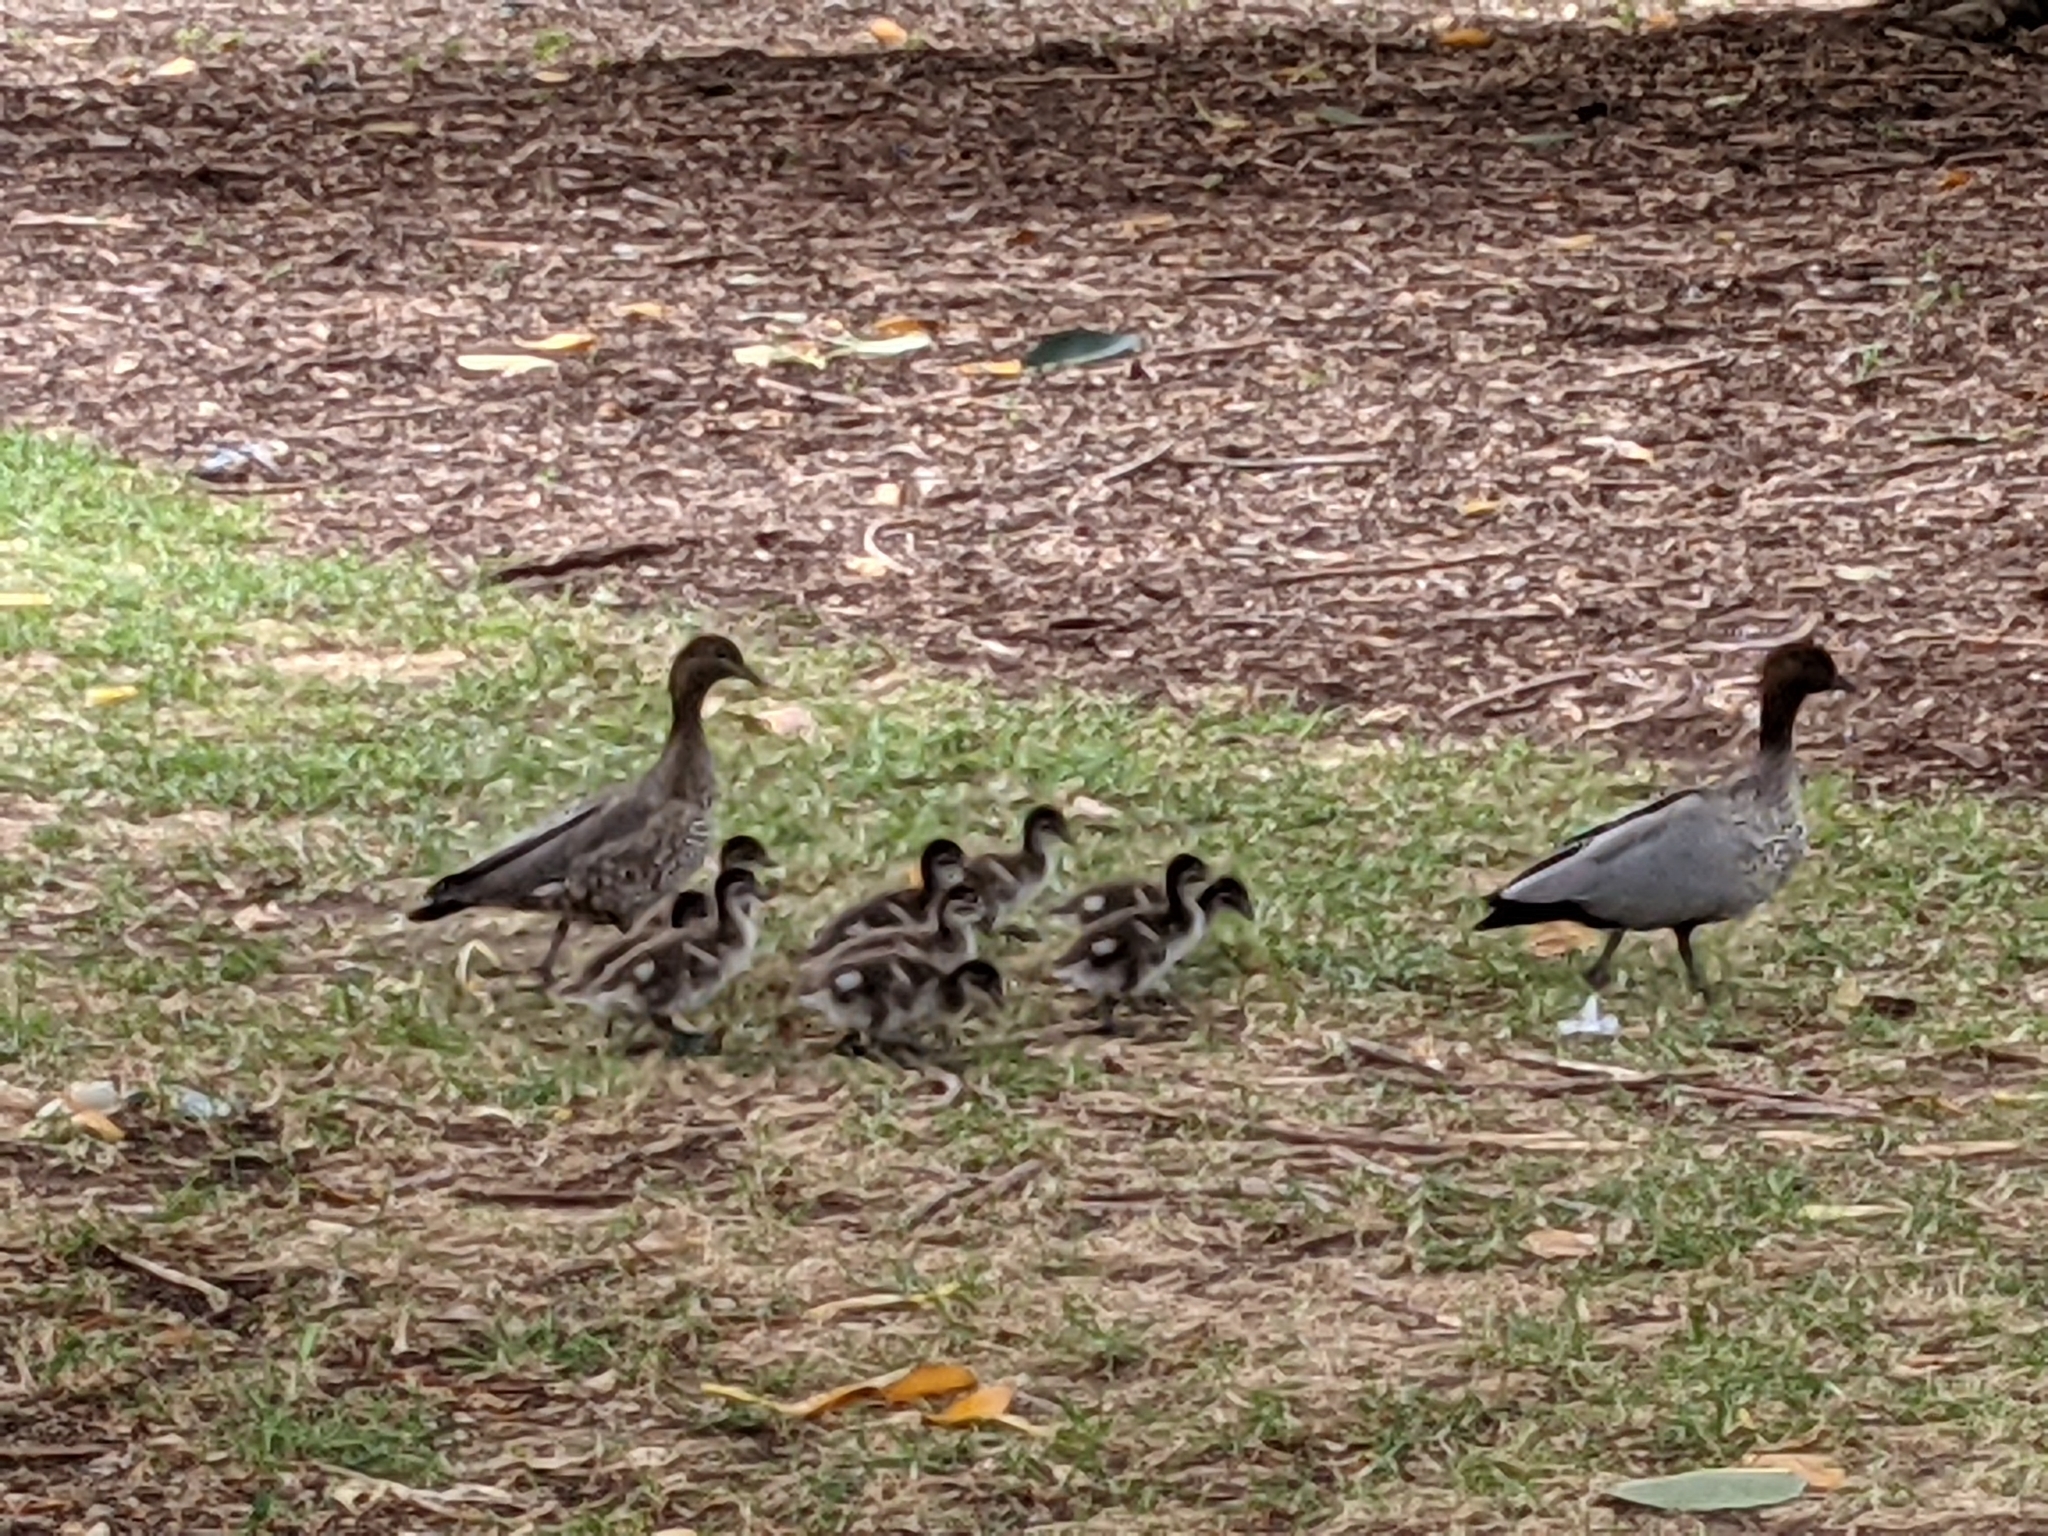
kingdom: Animalia
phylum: Chordata
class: Aves
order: Anseriformes
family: Anatidae
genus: Chenonetta
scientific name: Chenonetta jubata
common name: Maned duck
